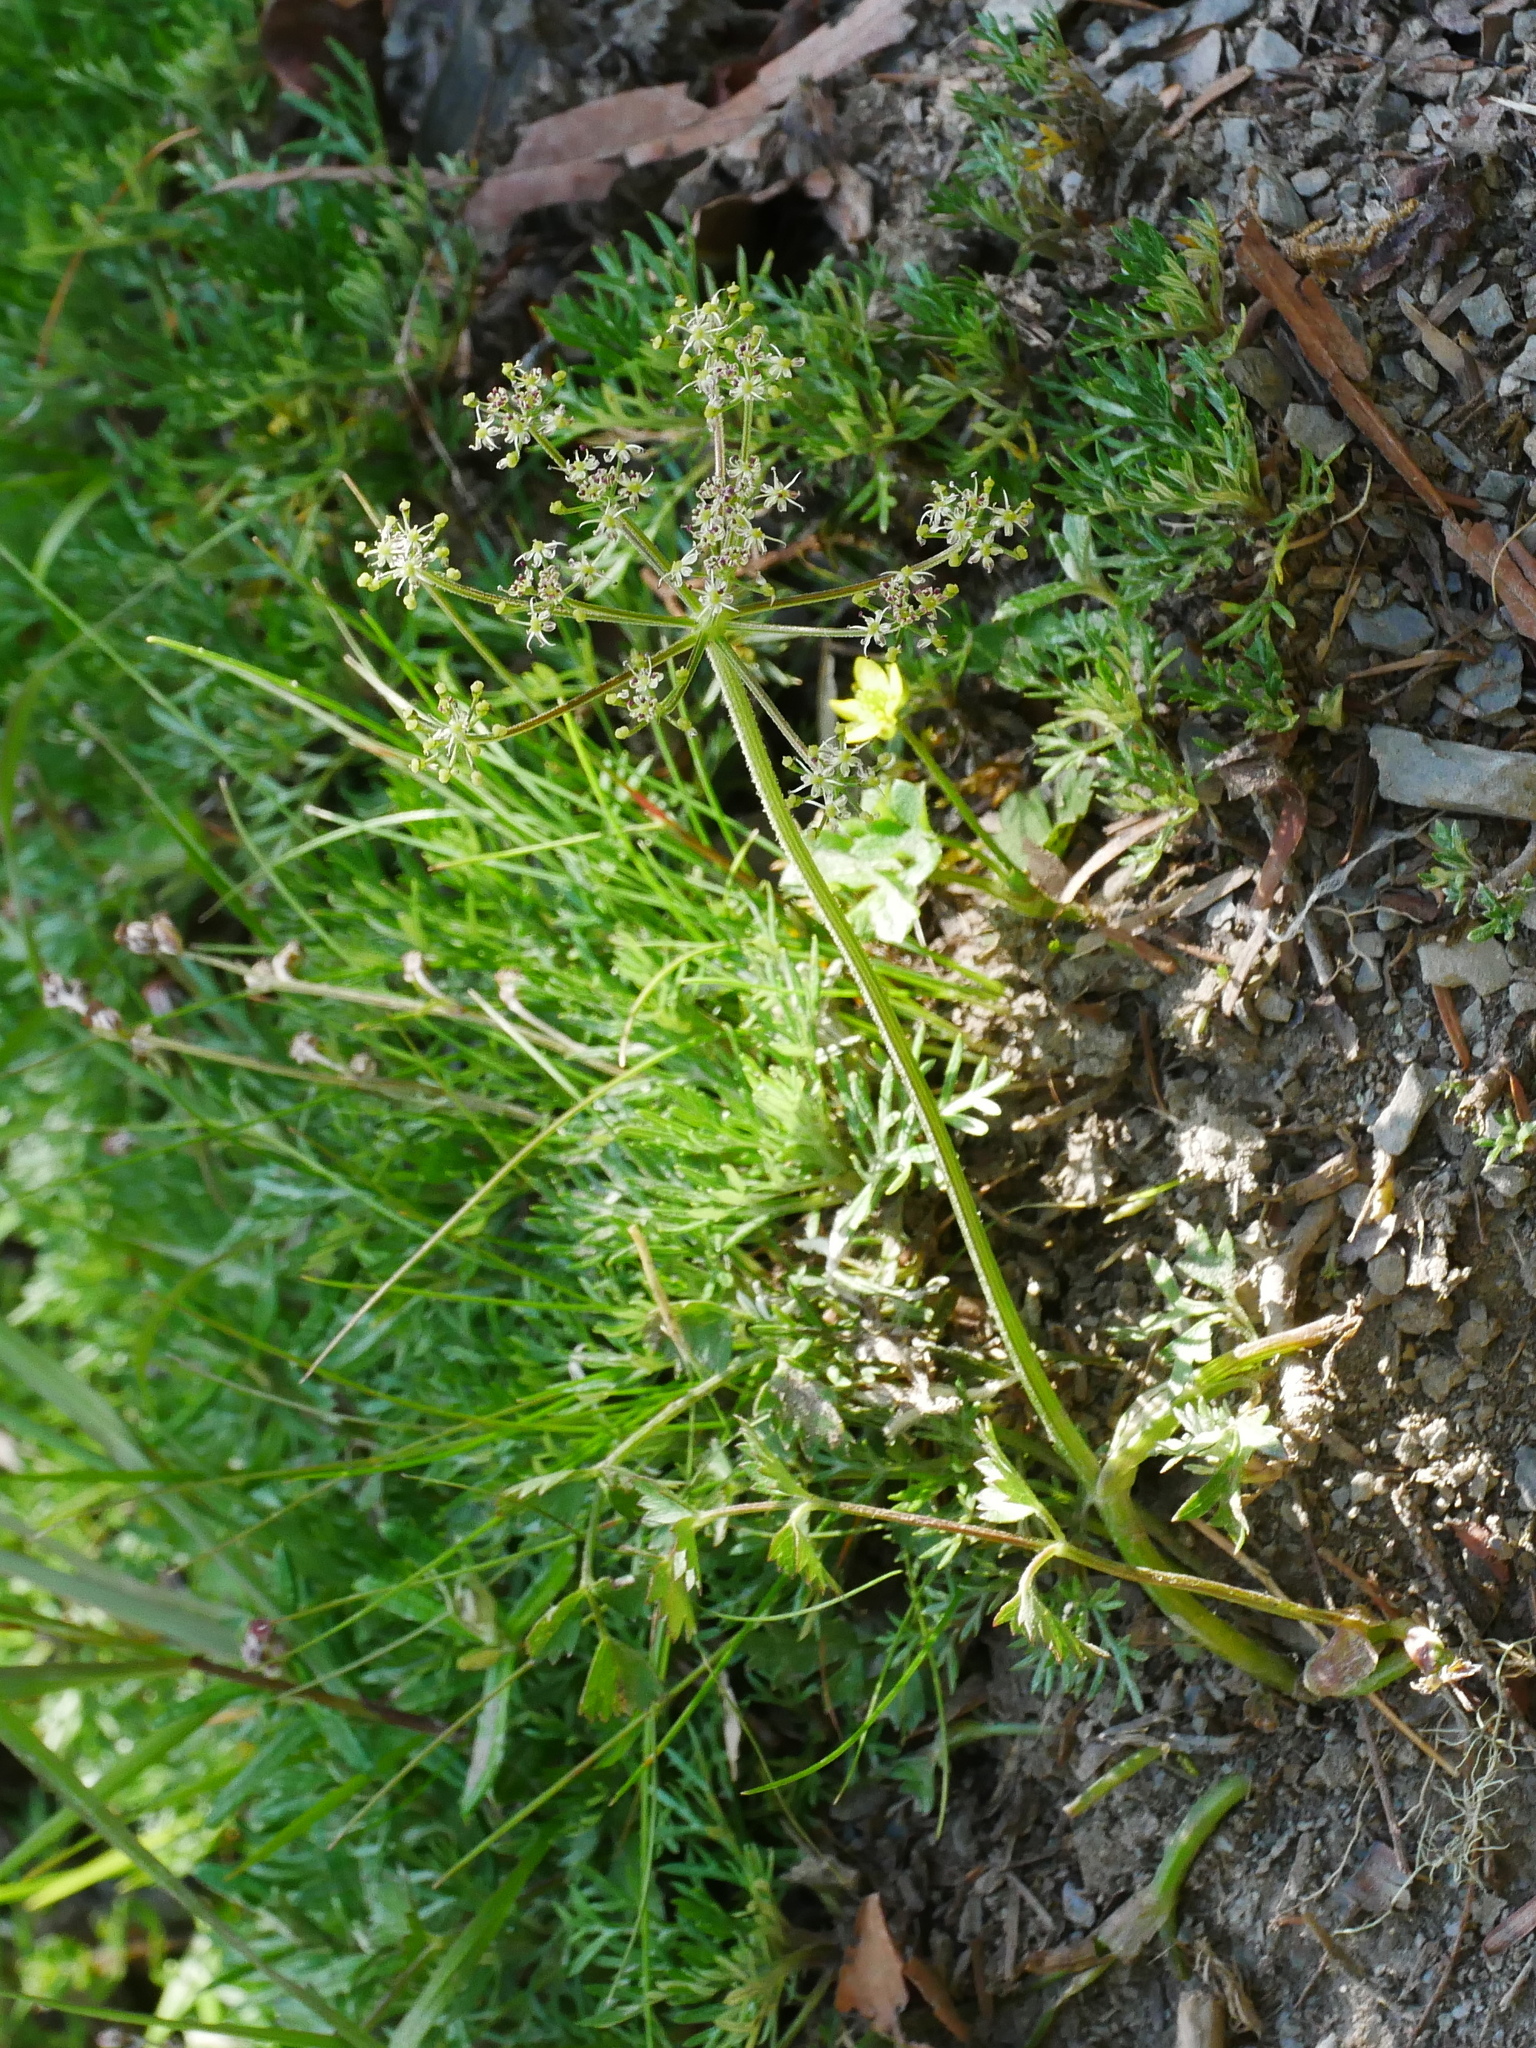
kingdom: Plantae
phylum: Tracheophyta
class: Magnoliopsida
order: Apiales
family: Apiaceae
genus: Pimpinella
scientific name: Pimpinella niitakayamensis
